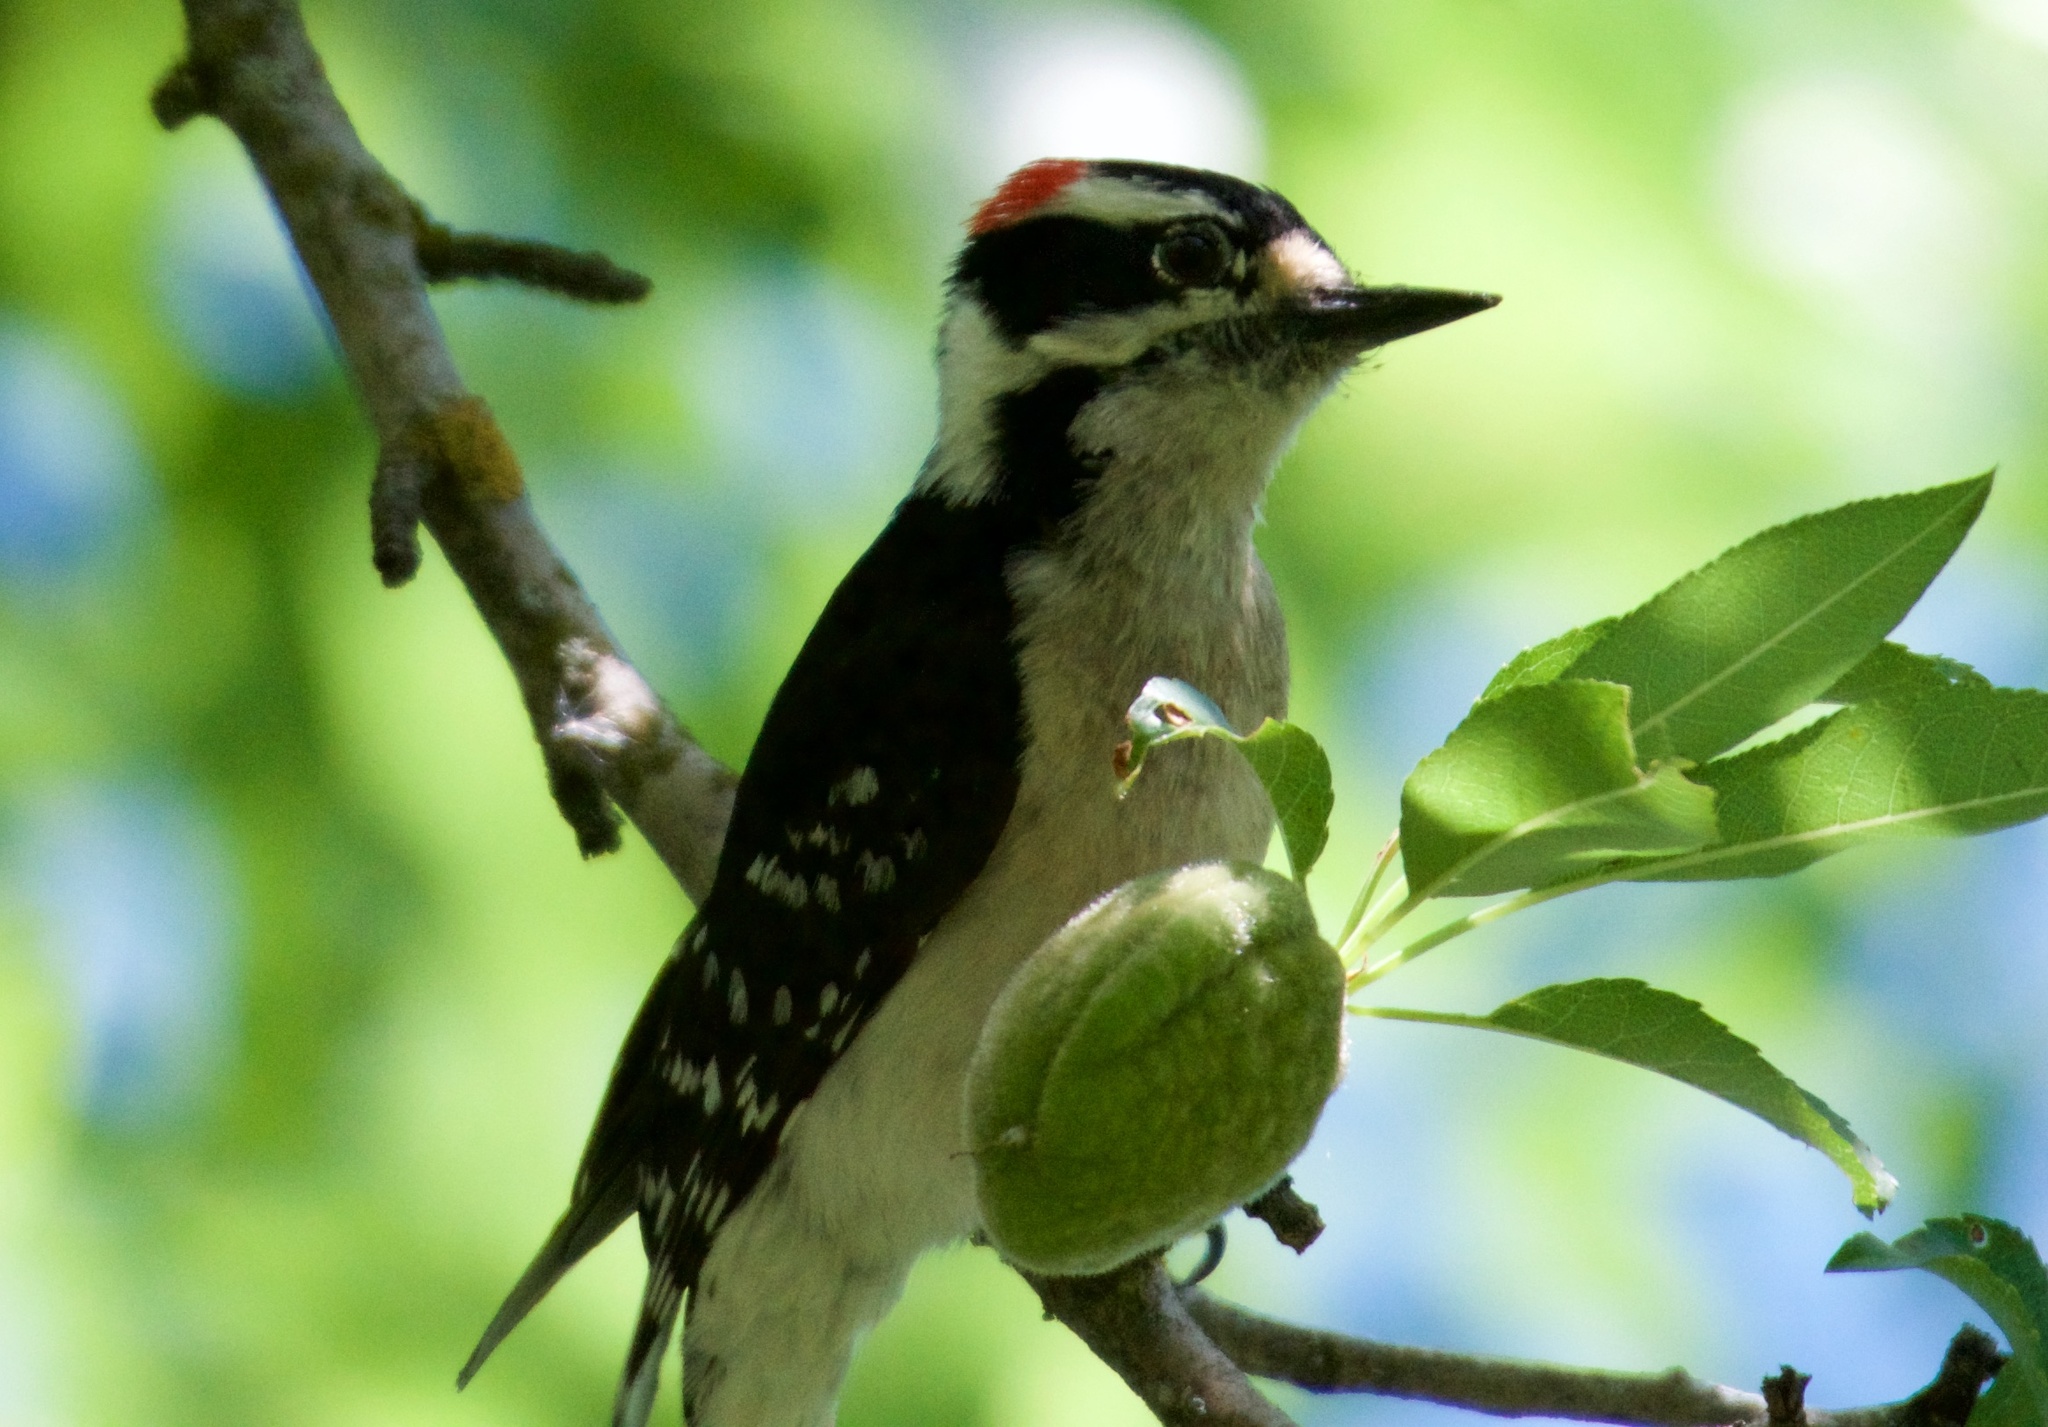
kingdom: Animalia
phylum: Chordata
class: Aves
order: Piciformes
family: Picidae
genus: Dryobates
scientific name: Dryobates pubescens
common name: Downy woodpecker
